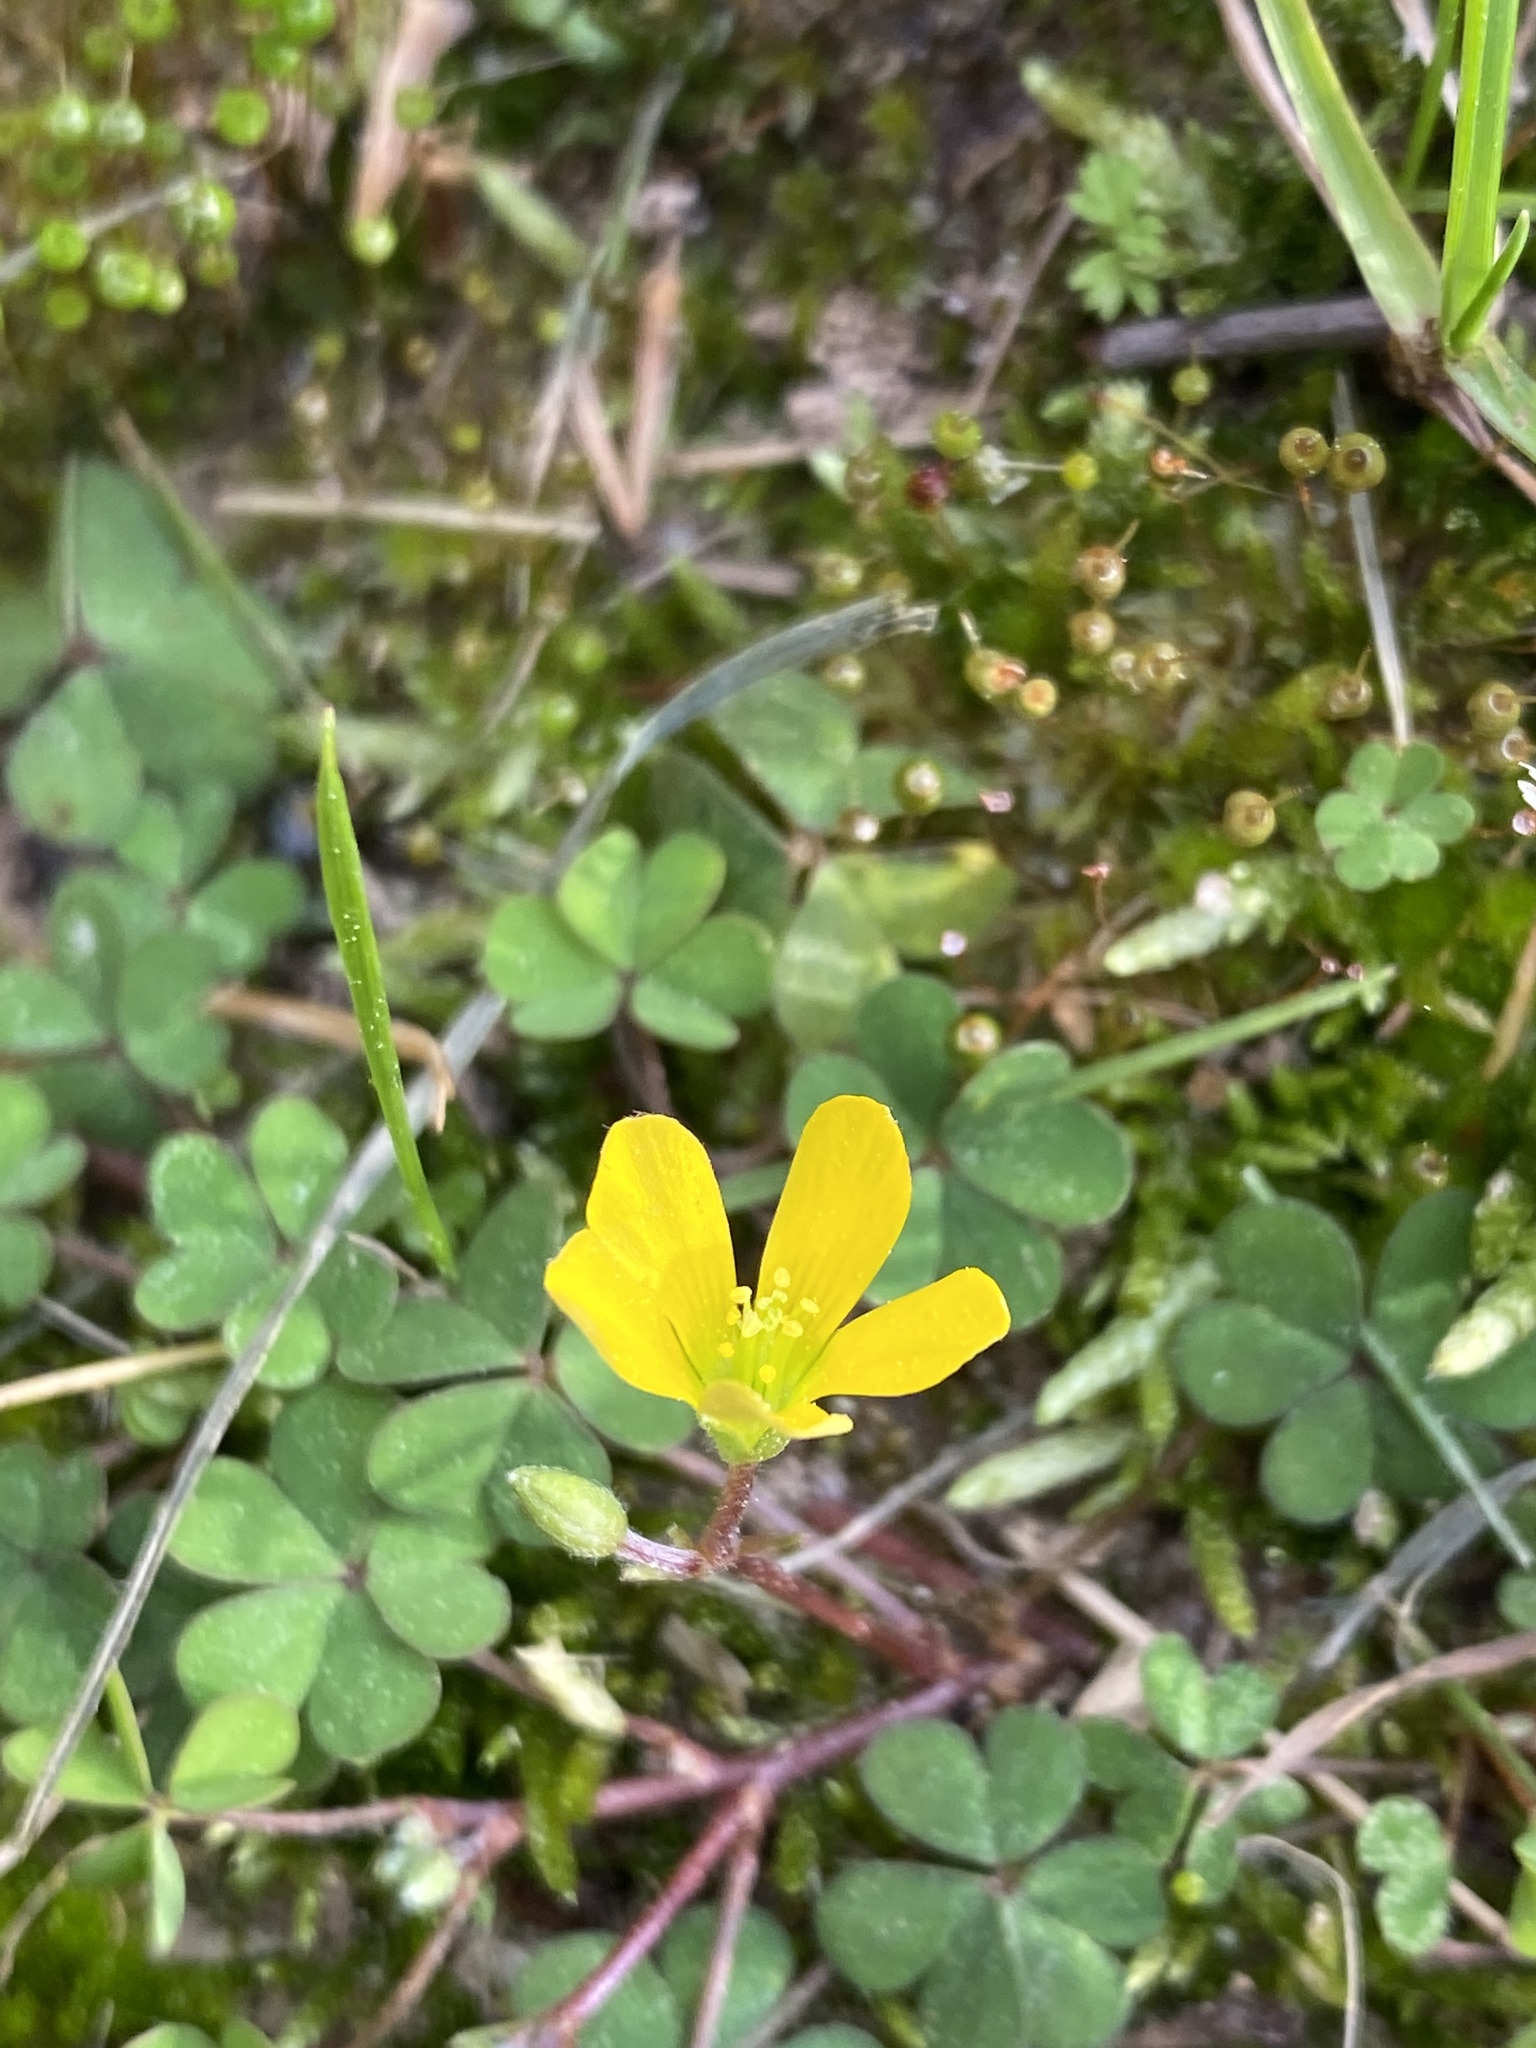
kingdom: Plantae
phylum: Tracheophyta
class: Magnoliopsida
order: Oxalidales
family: Oxalidaceae
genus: Oxalis
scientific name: Oxalis corniculata
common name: Procumbent yellow-sorrel
